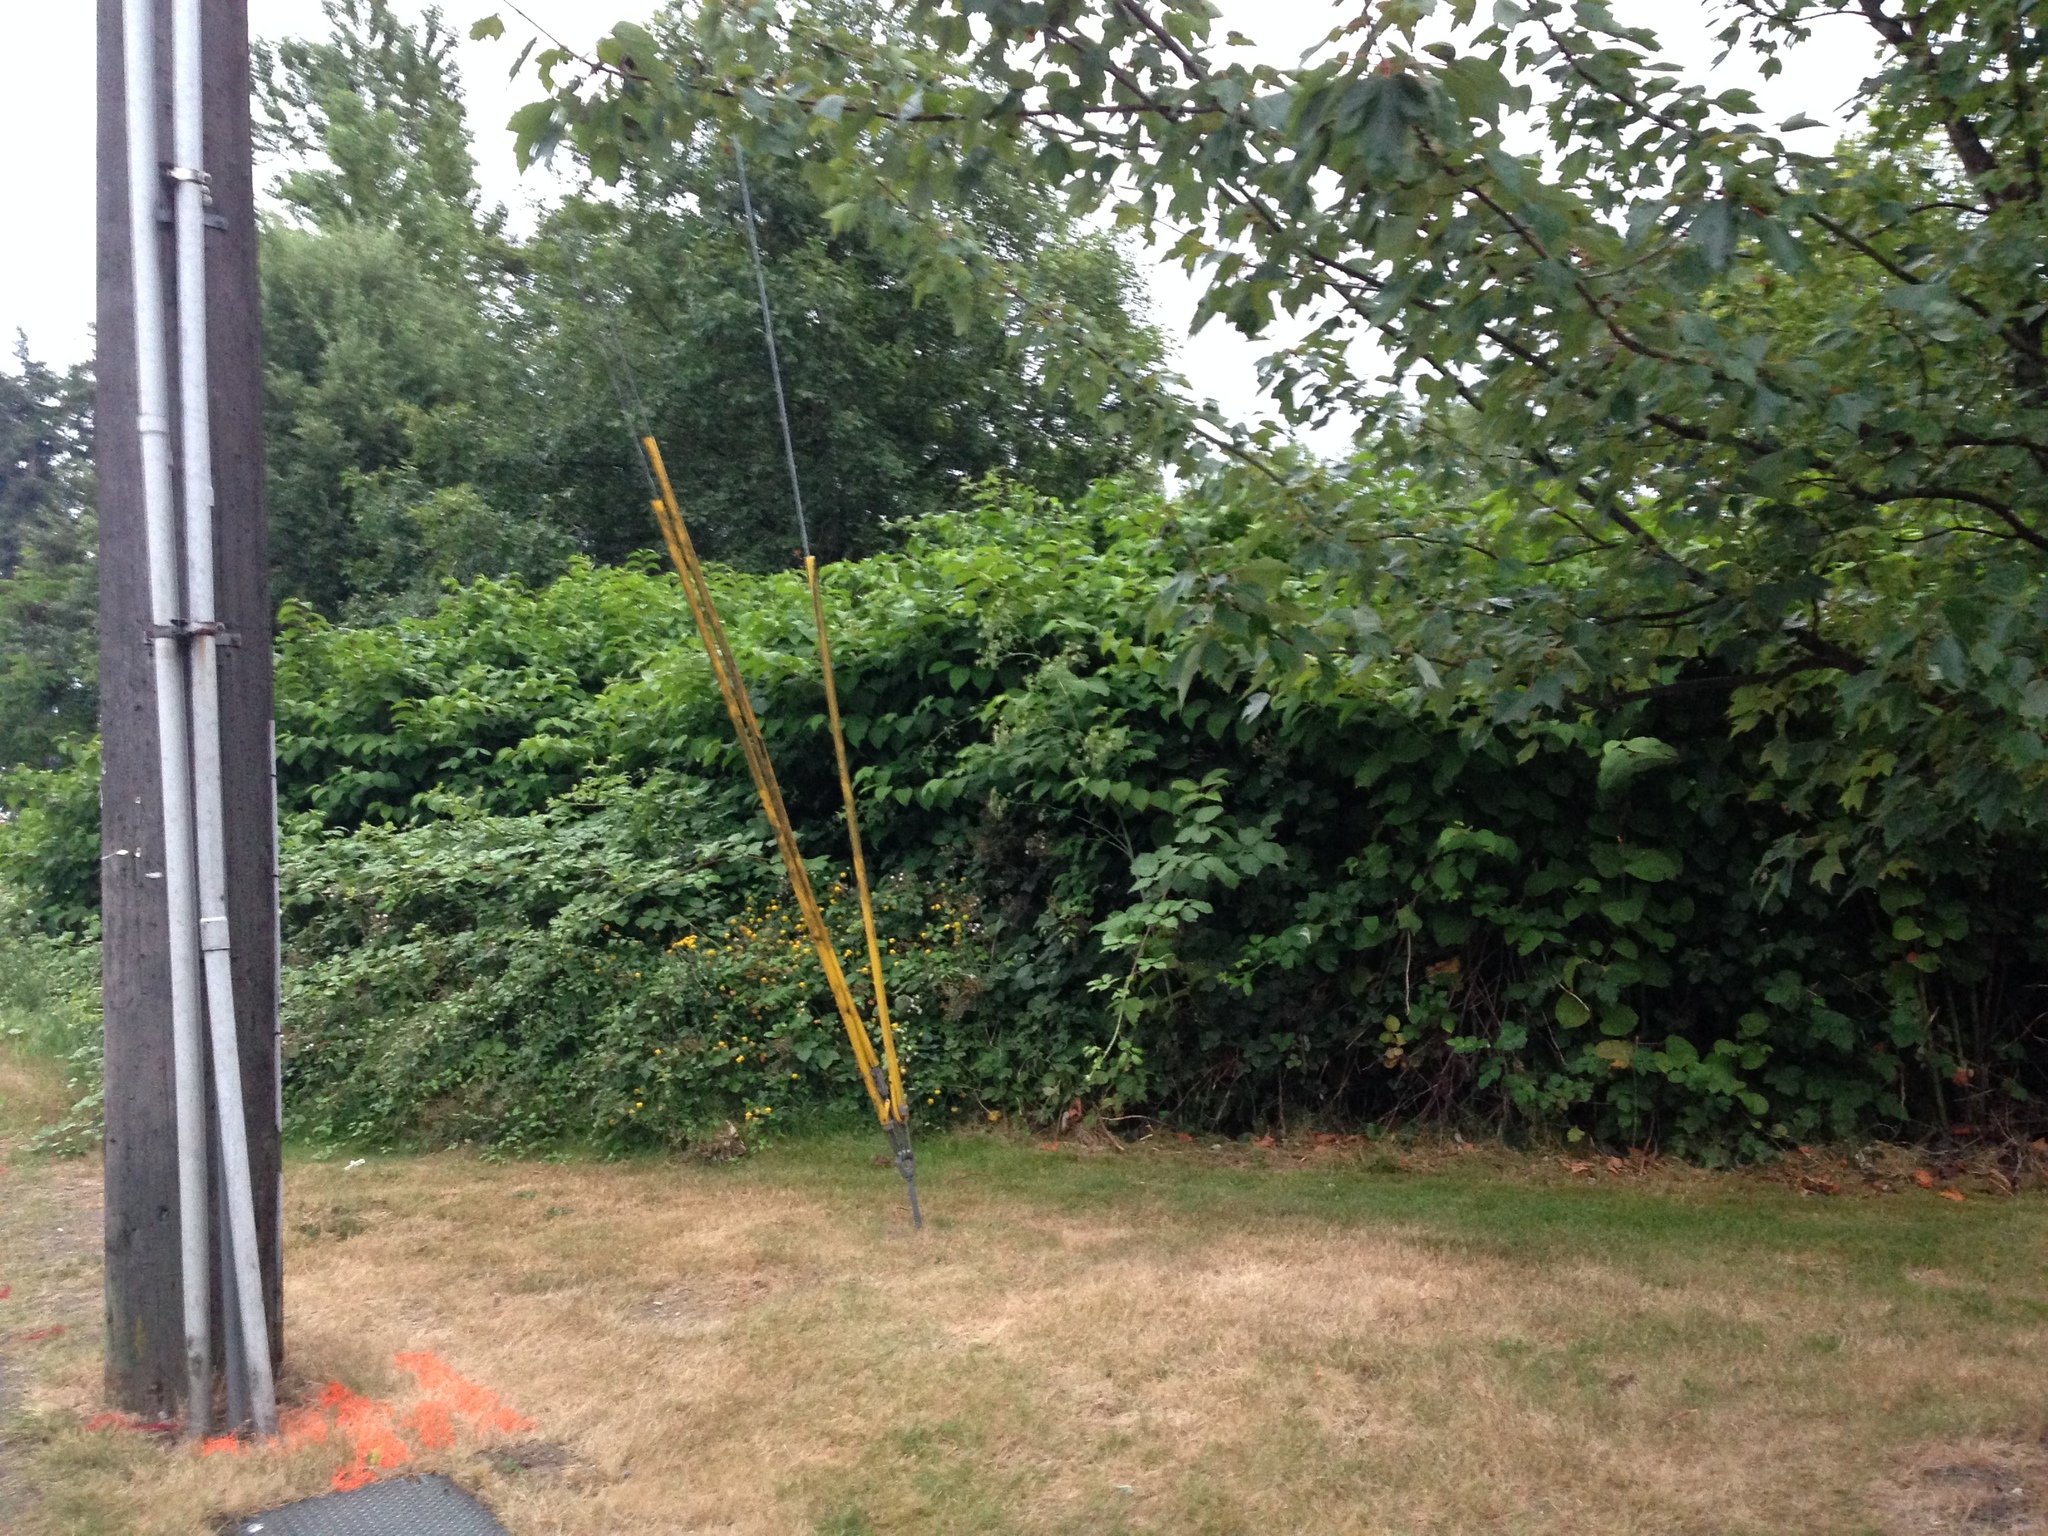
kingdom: Plantae
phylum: Tracheophyta
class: Magnoliopsida
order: Caryophyllales
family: Polygonaceae
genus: Reynoutria
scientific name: Reynoutria japonica
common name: Japanese knotweed
